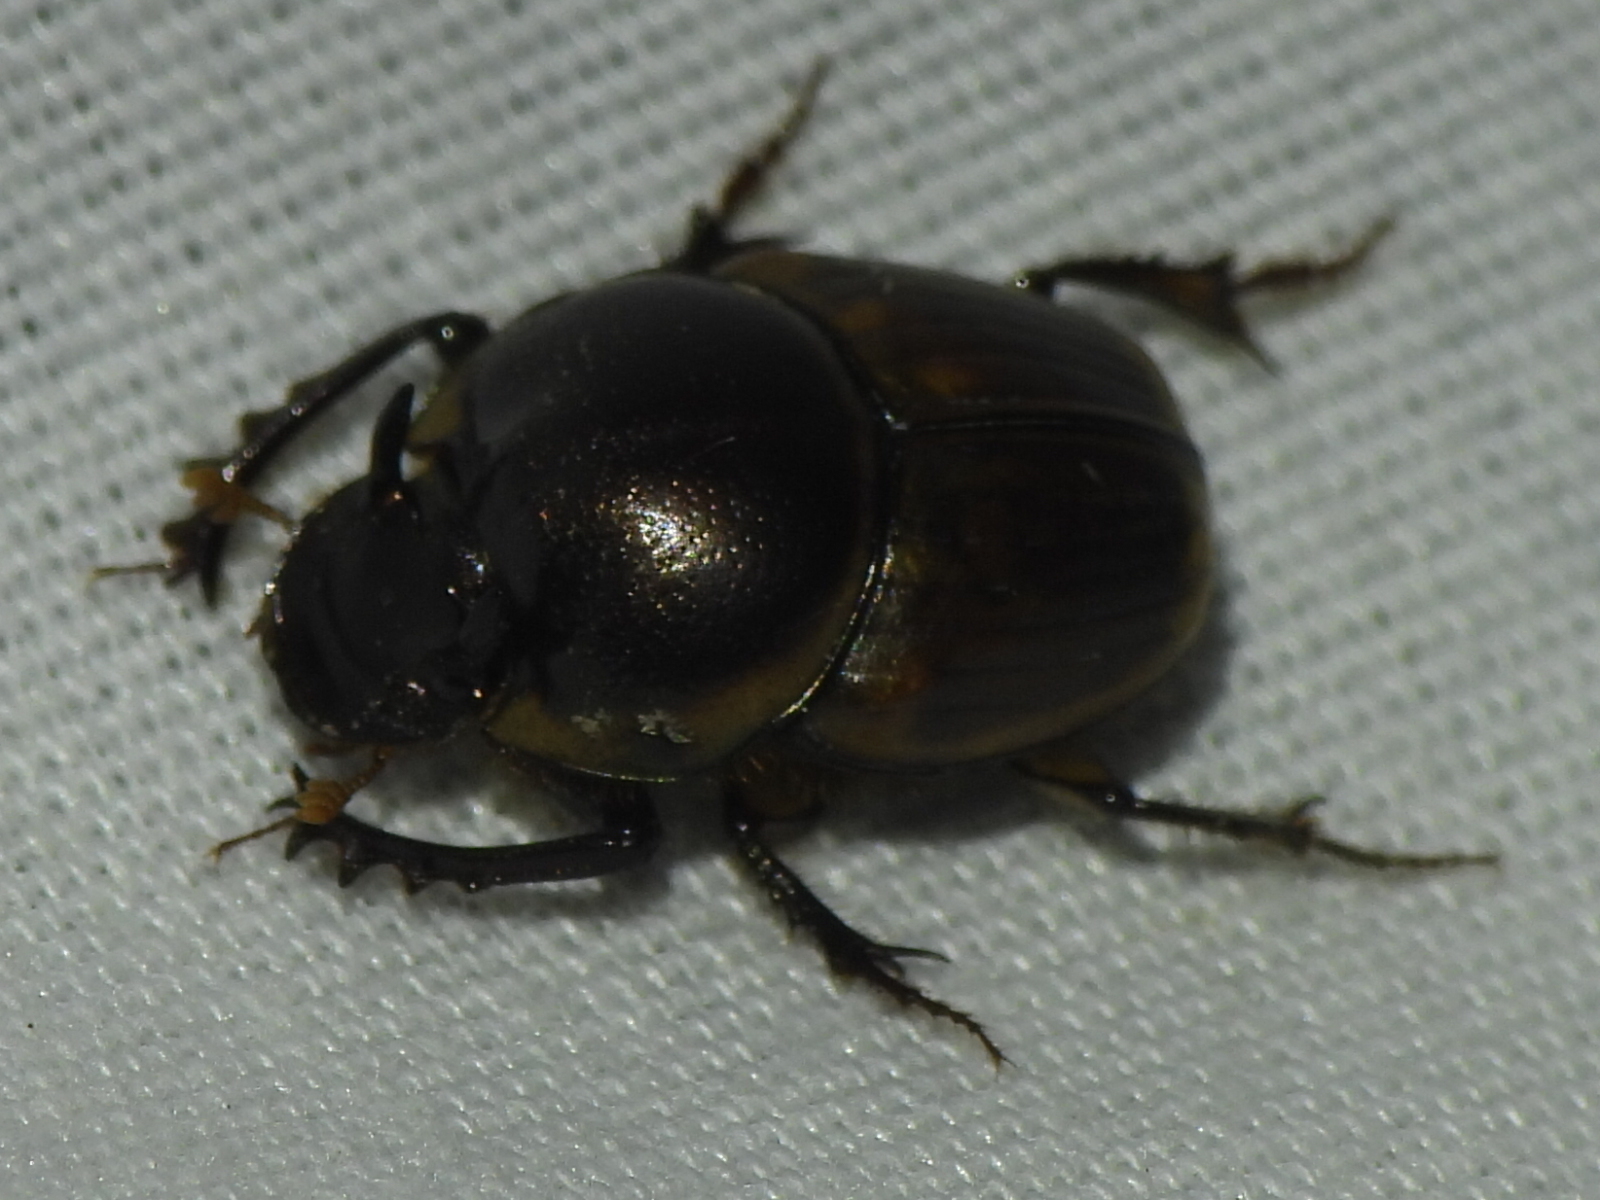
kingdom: Animalia
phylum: Arthropoda
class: Insecta
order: Coleoptera
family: Scarabaeidae
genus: Digitonthophagus
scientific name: Digitonthophagus gazella
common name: Brown dung beetle
